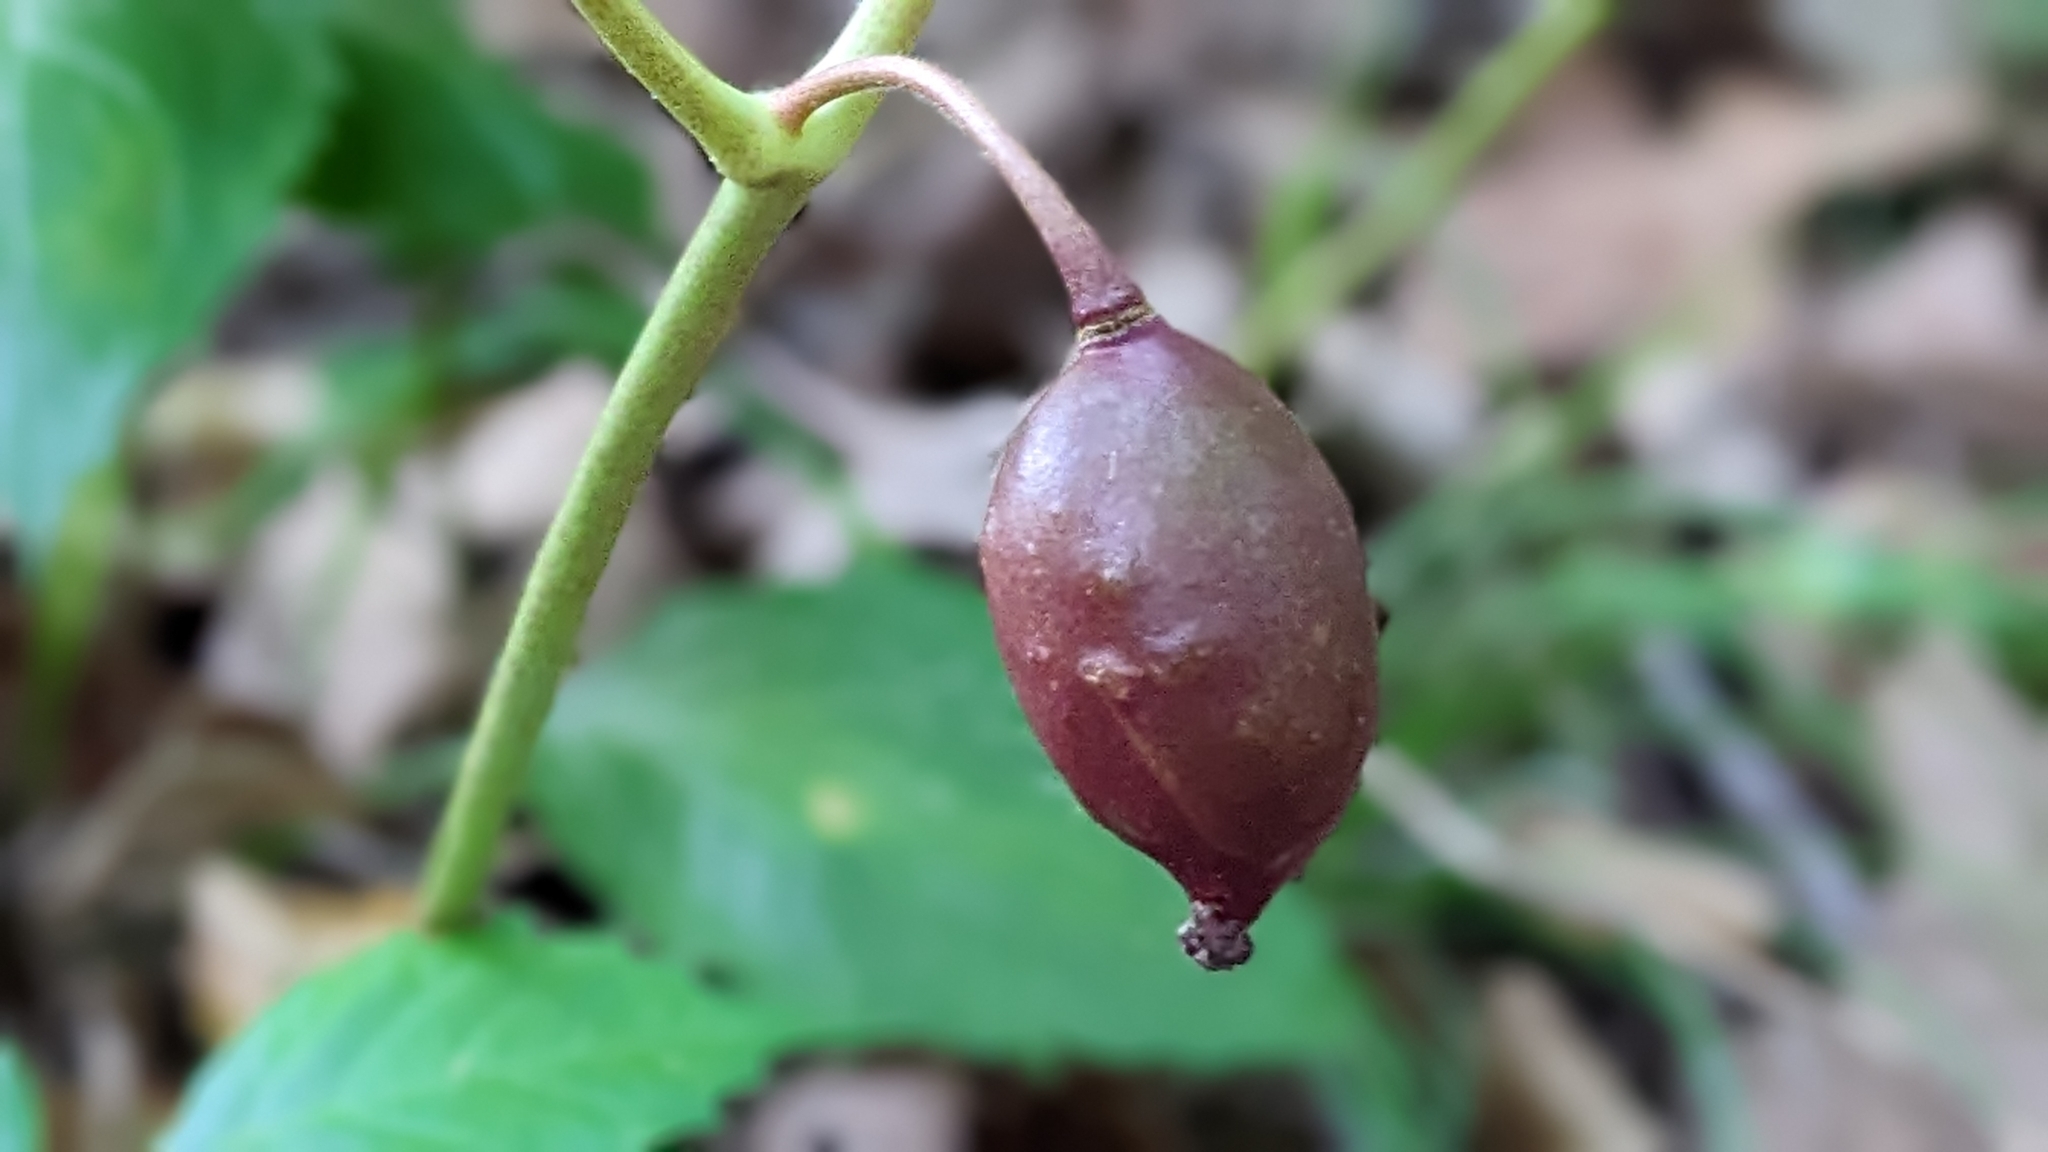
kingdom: Plantae
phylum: Tracheophyta
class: Magnoliopsida
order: Ranunculales
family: Berberidaceae
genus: Podophyllum
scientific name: Podophyllum peltatum
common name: Wild mandrake
